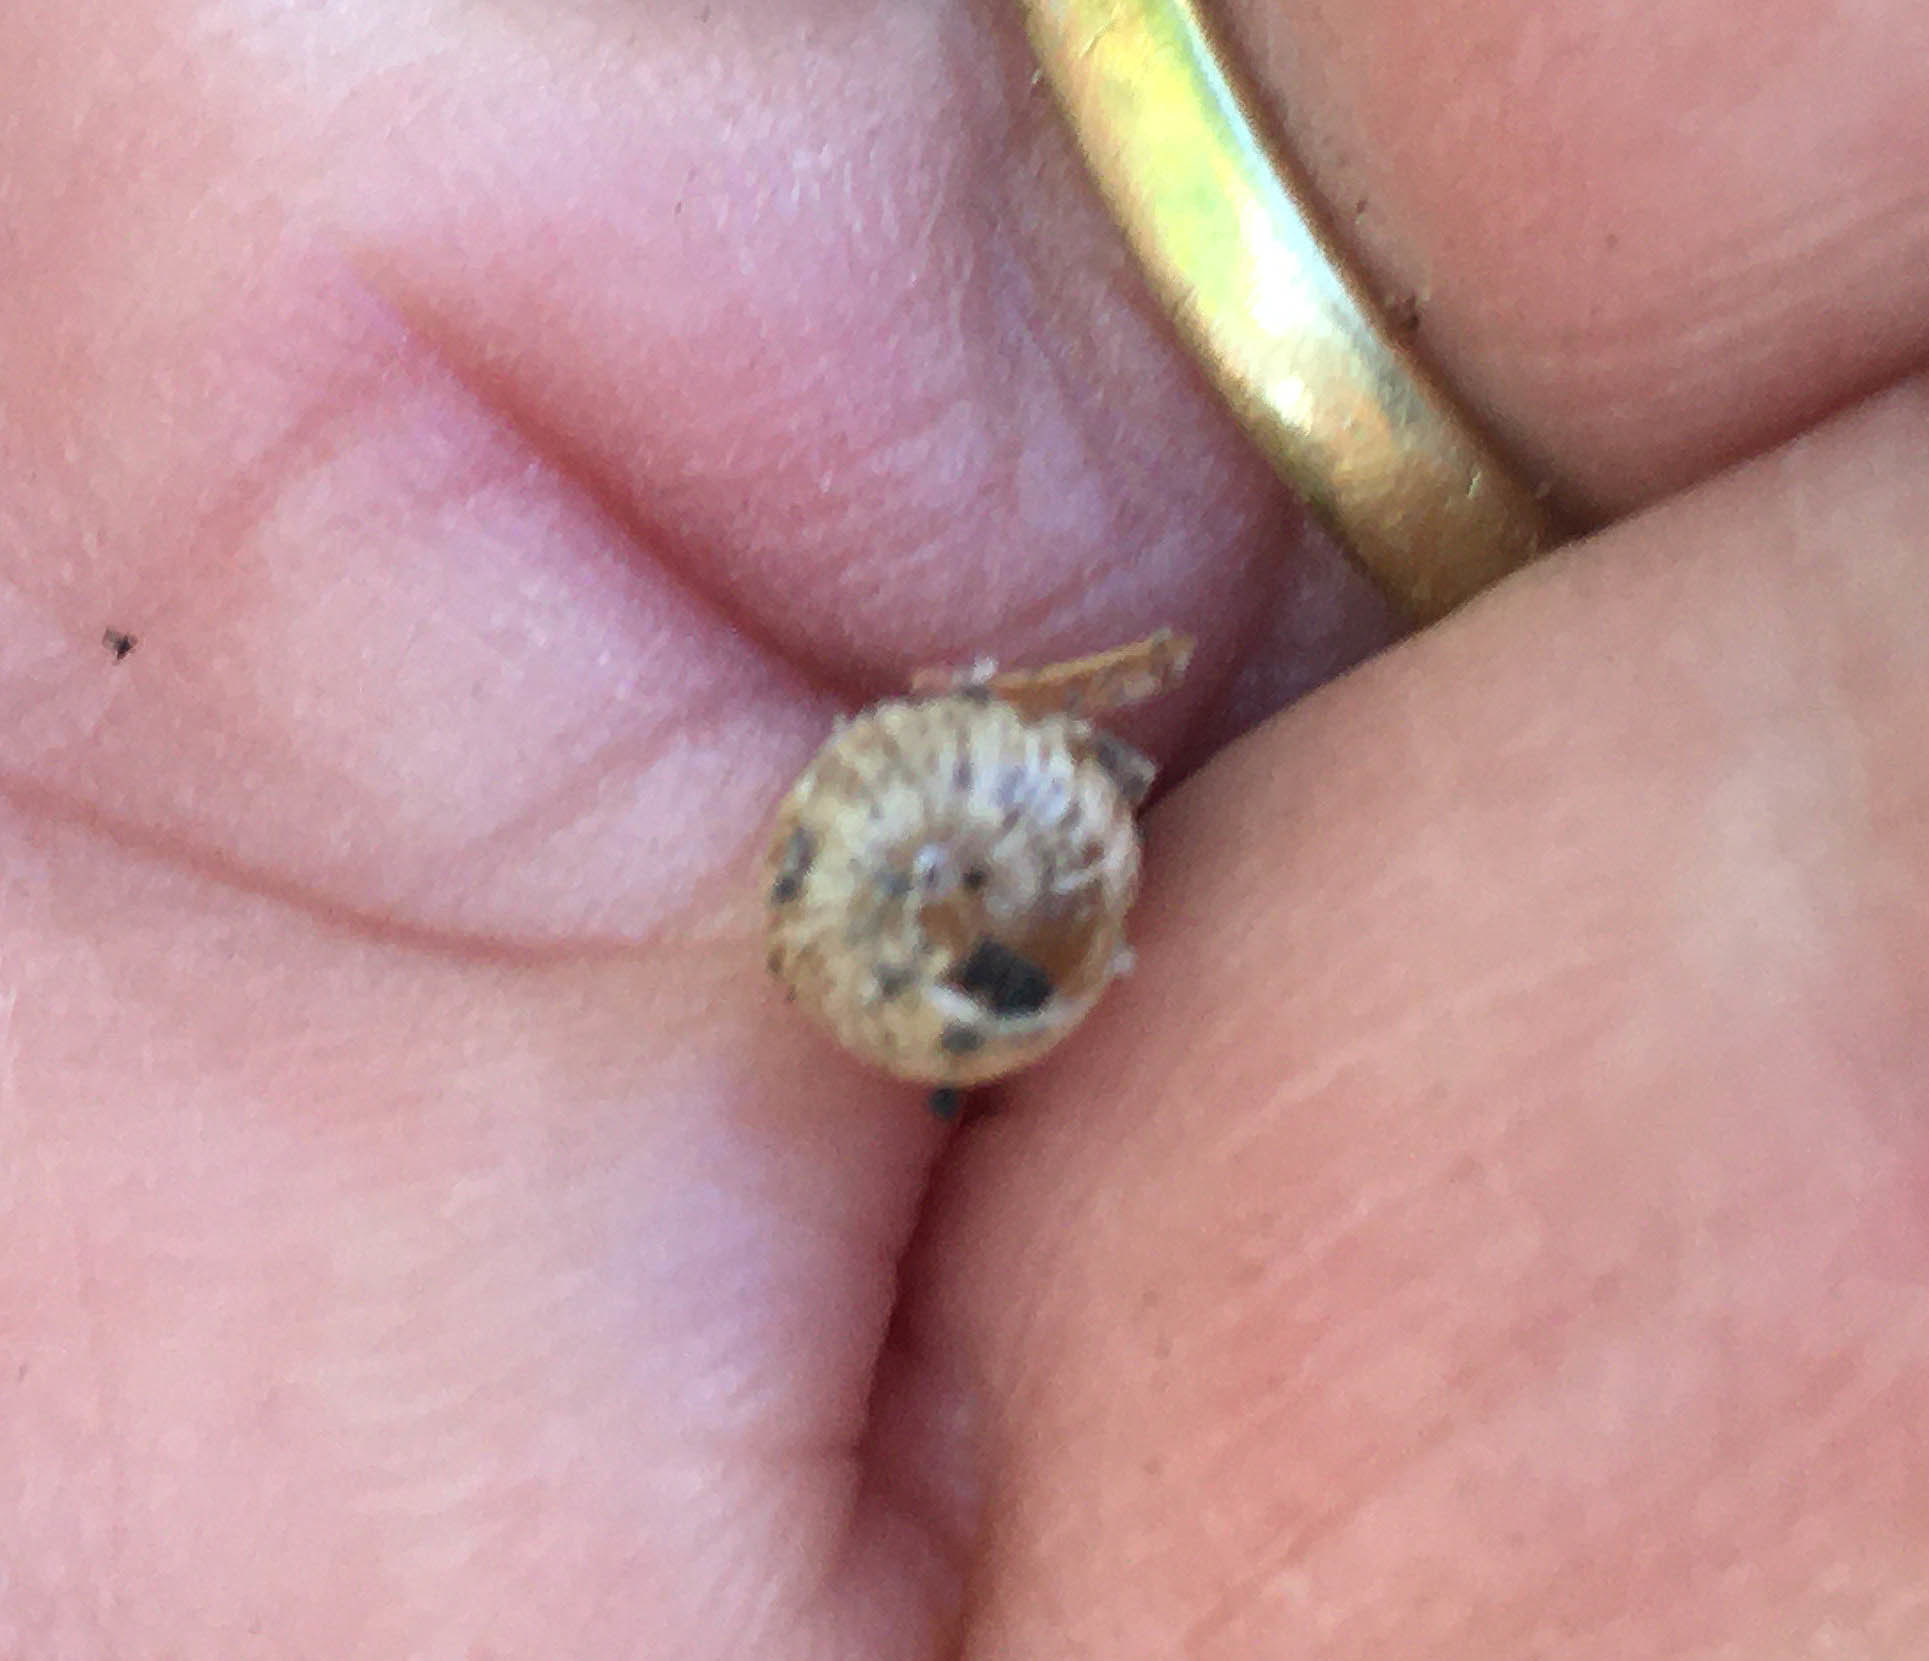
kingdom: Animalia
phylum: Mollusca
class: Gastropoda
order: Stylommatophora
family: Geomitridae
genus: Cochlicella
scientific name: Cochlicella barbara
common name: Potbellied helicellid
